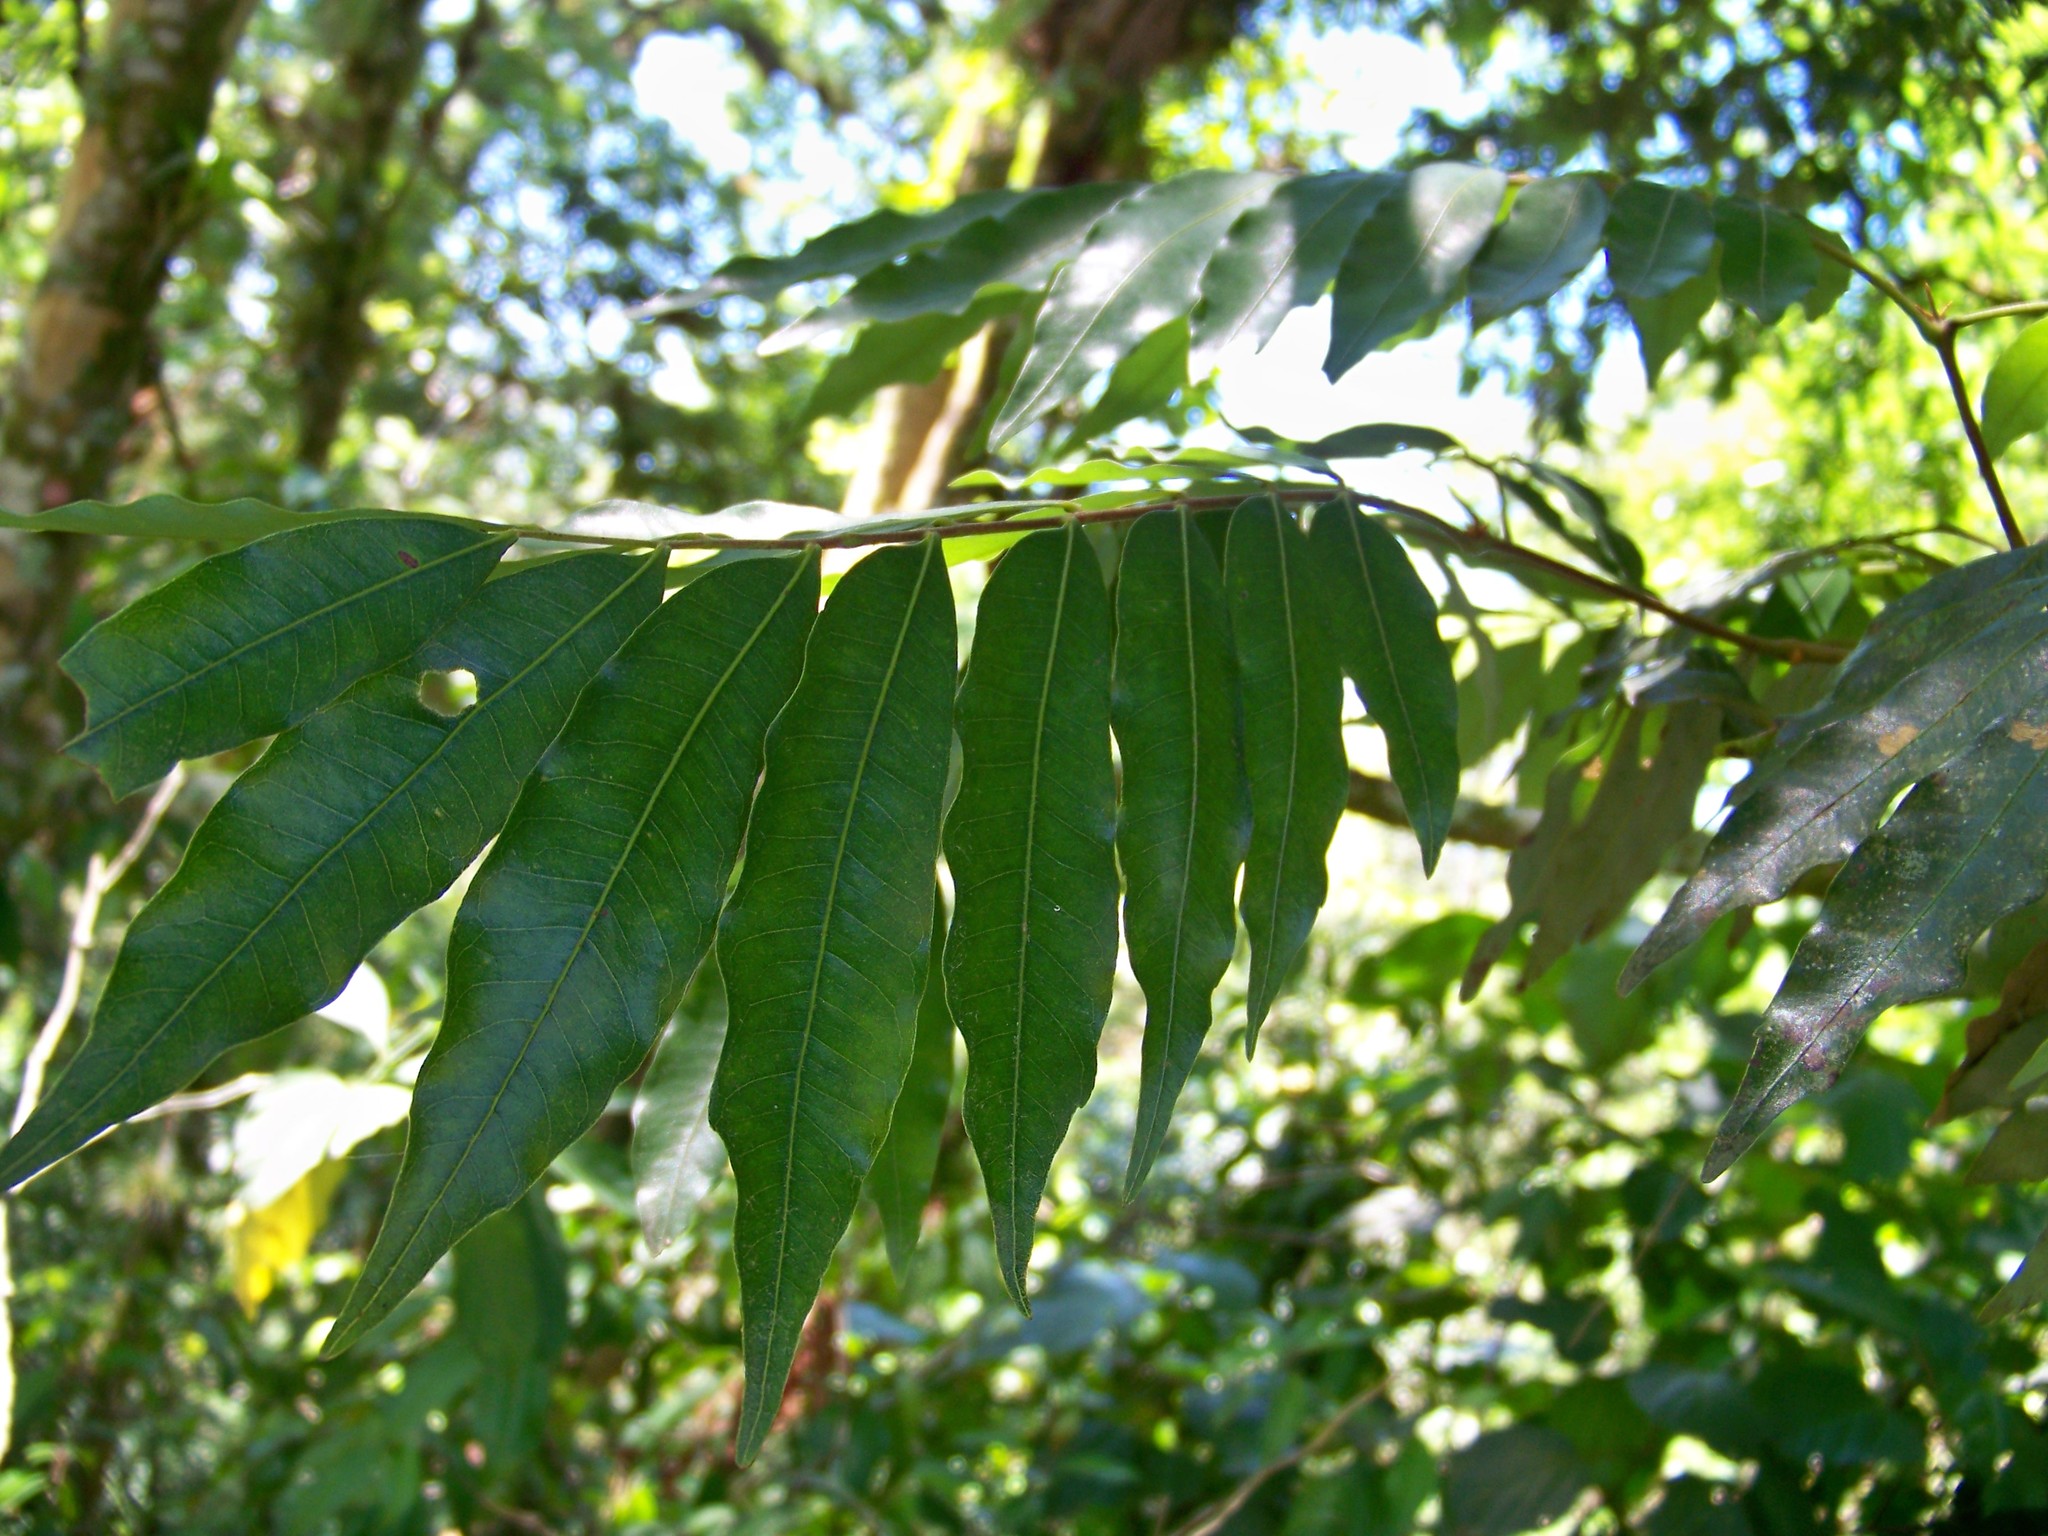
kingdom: Plantae
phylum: Tracheophyta
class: Magnoliopsida
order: Fagales
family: Juglandaceae
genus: Oreomunnea
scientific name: Oreomunnea mexicana
